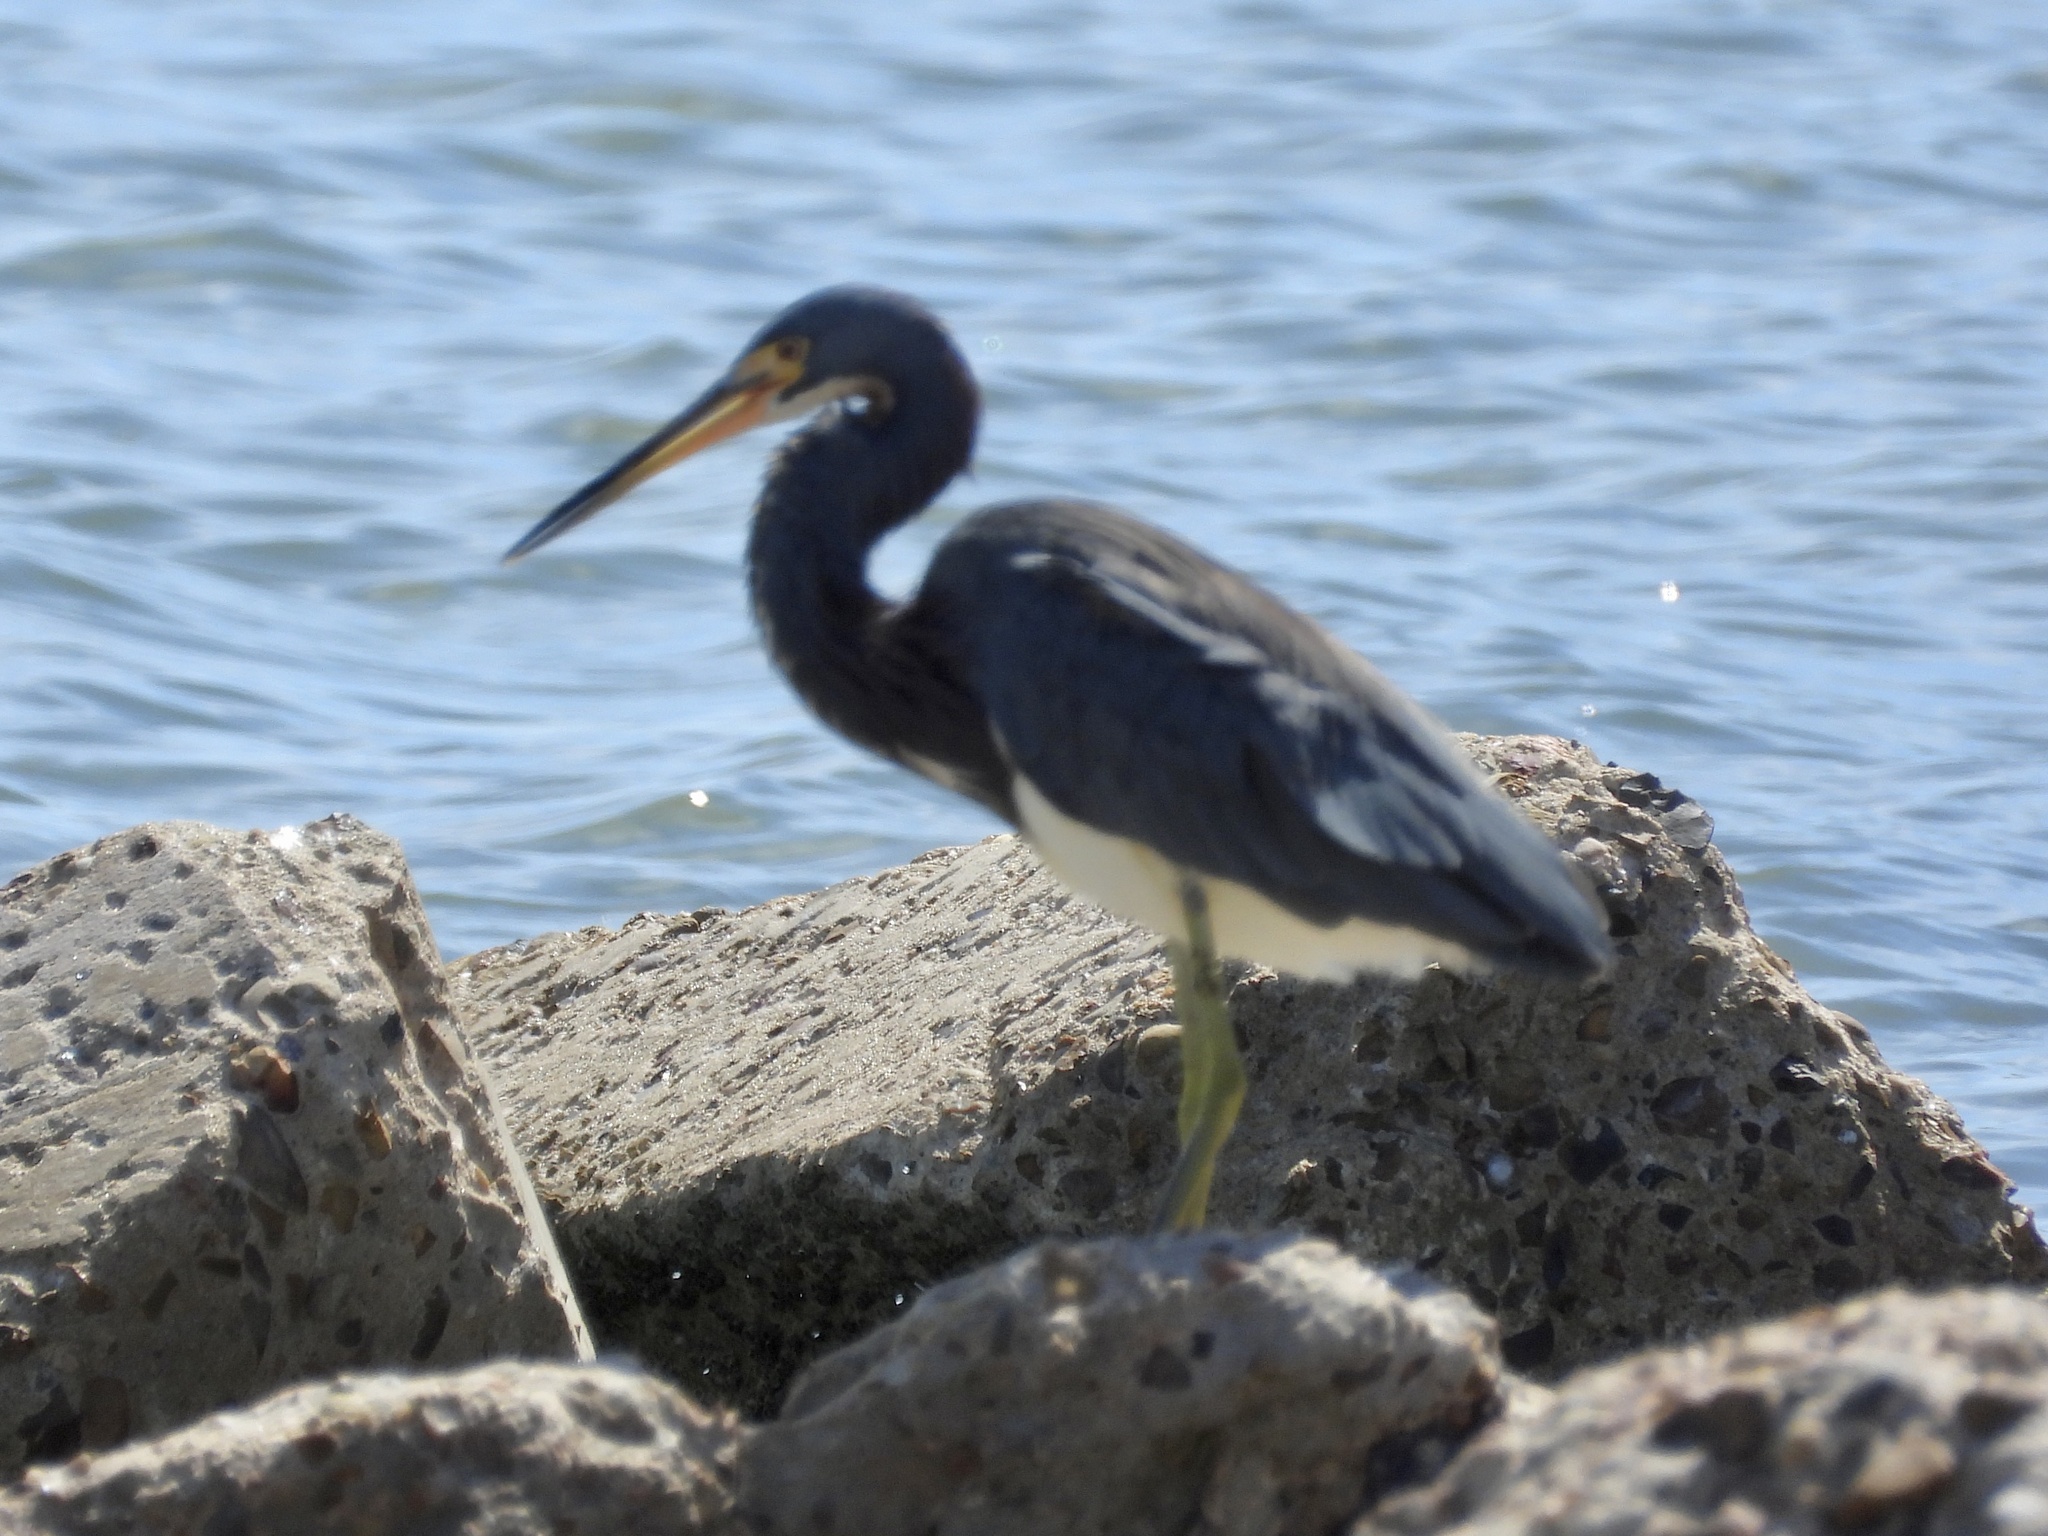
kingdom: Animalia
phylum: Chordata
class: Aves
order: Pelecaniformes
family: Ardeidae
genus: Egretta
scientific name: Egretta tricolor
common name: Tricolored heron
